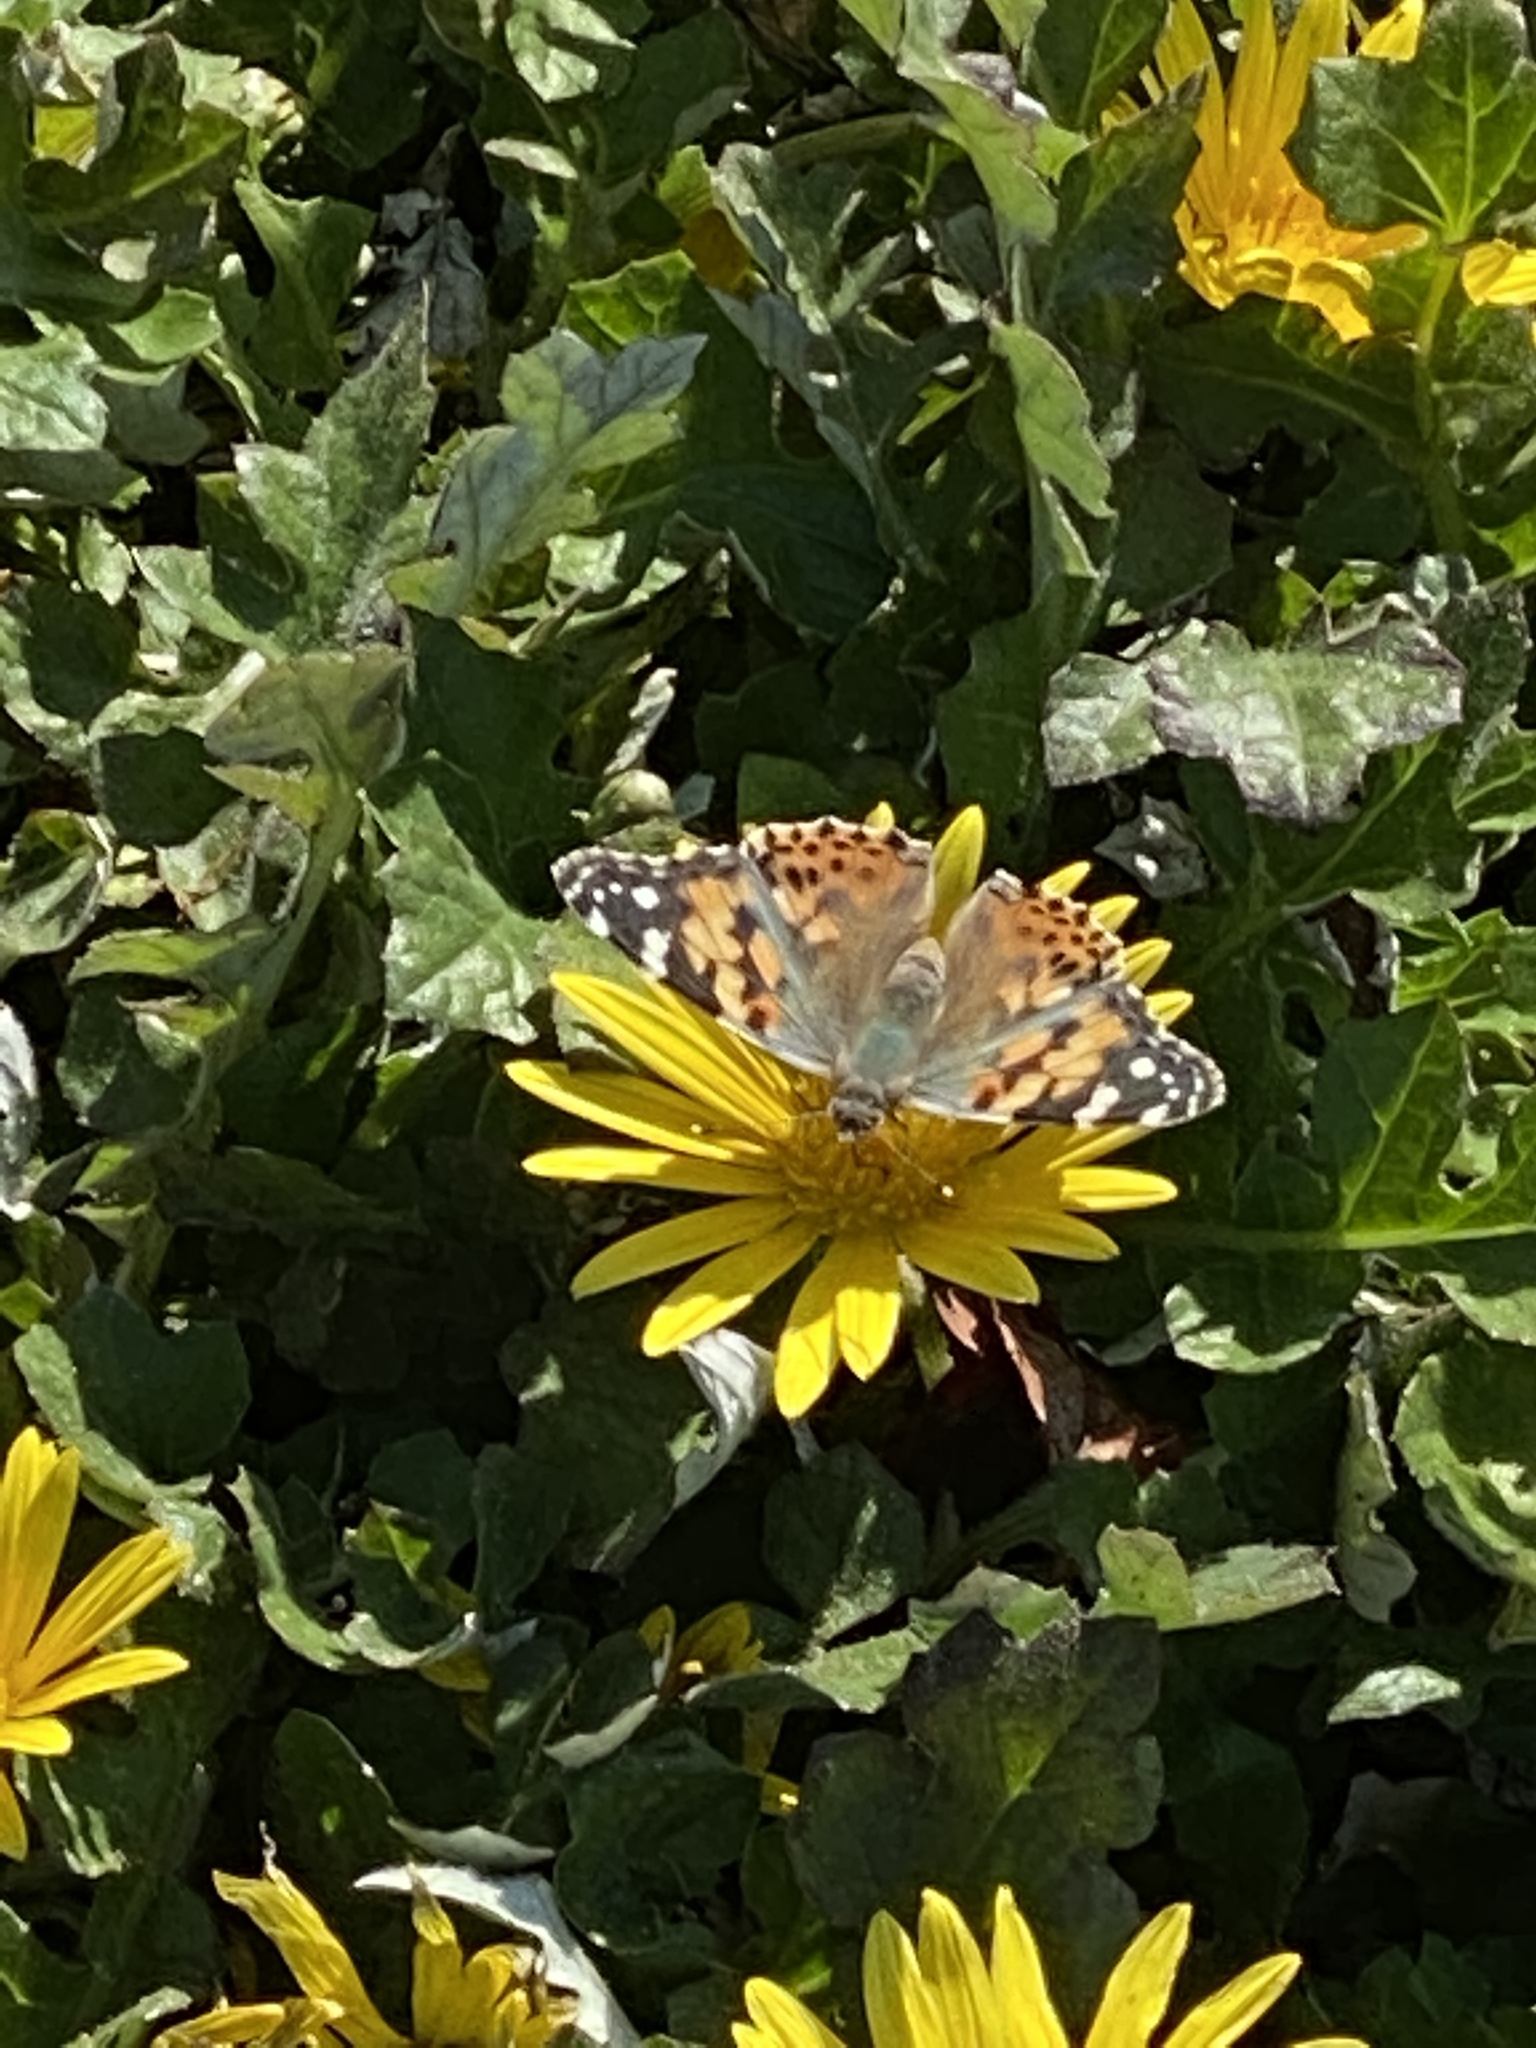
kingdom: Animalia
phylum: Arthropoda
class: Insecta
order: Lepidoptera
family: Nymphalidae
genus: Vanessa
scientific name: Vanessa cardui
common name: Painted lady
